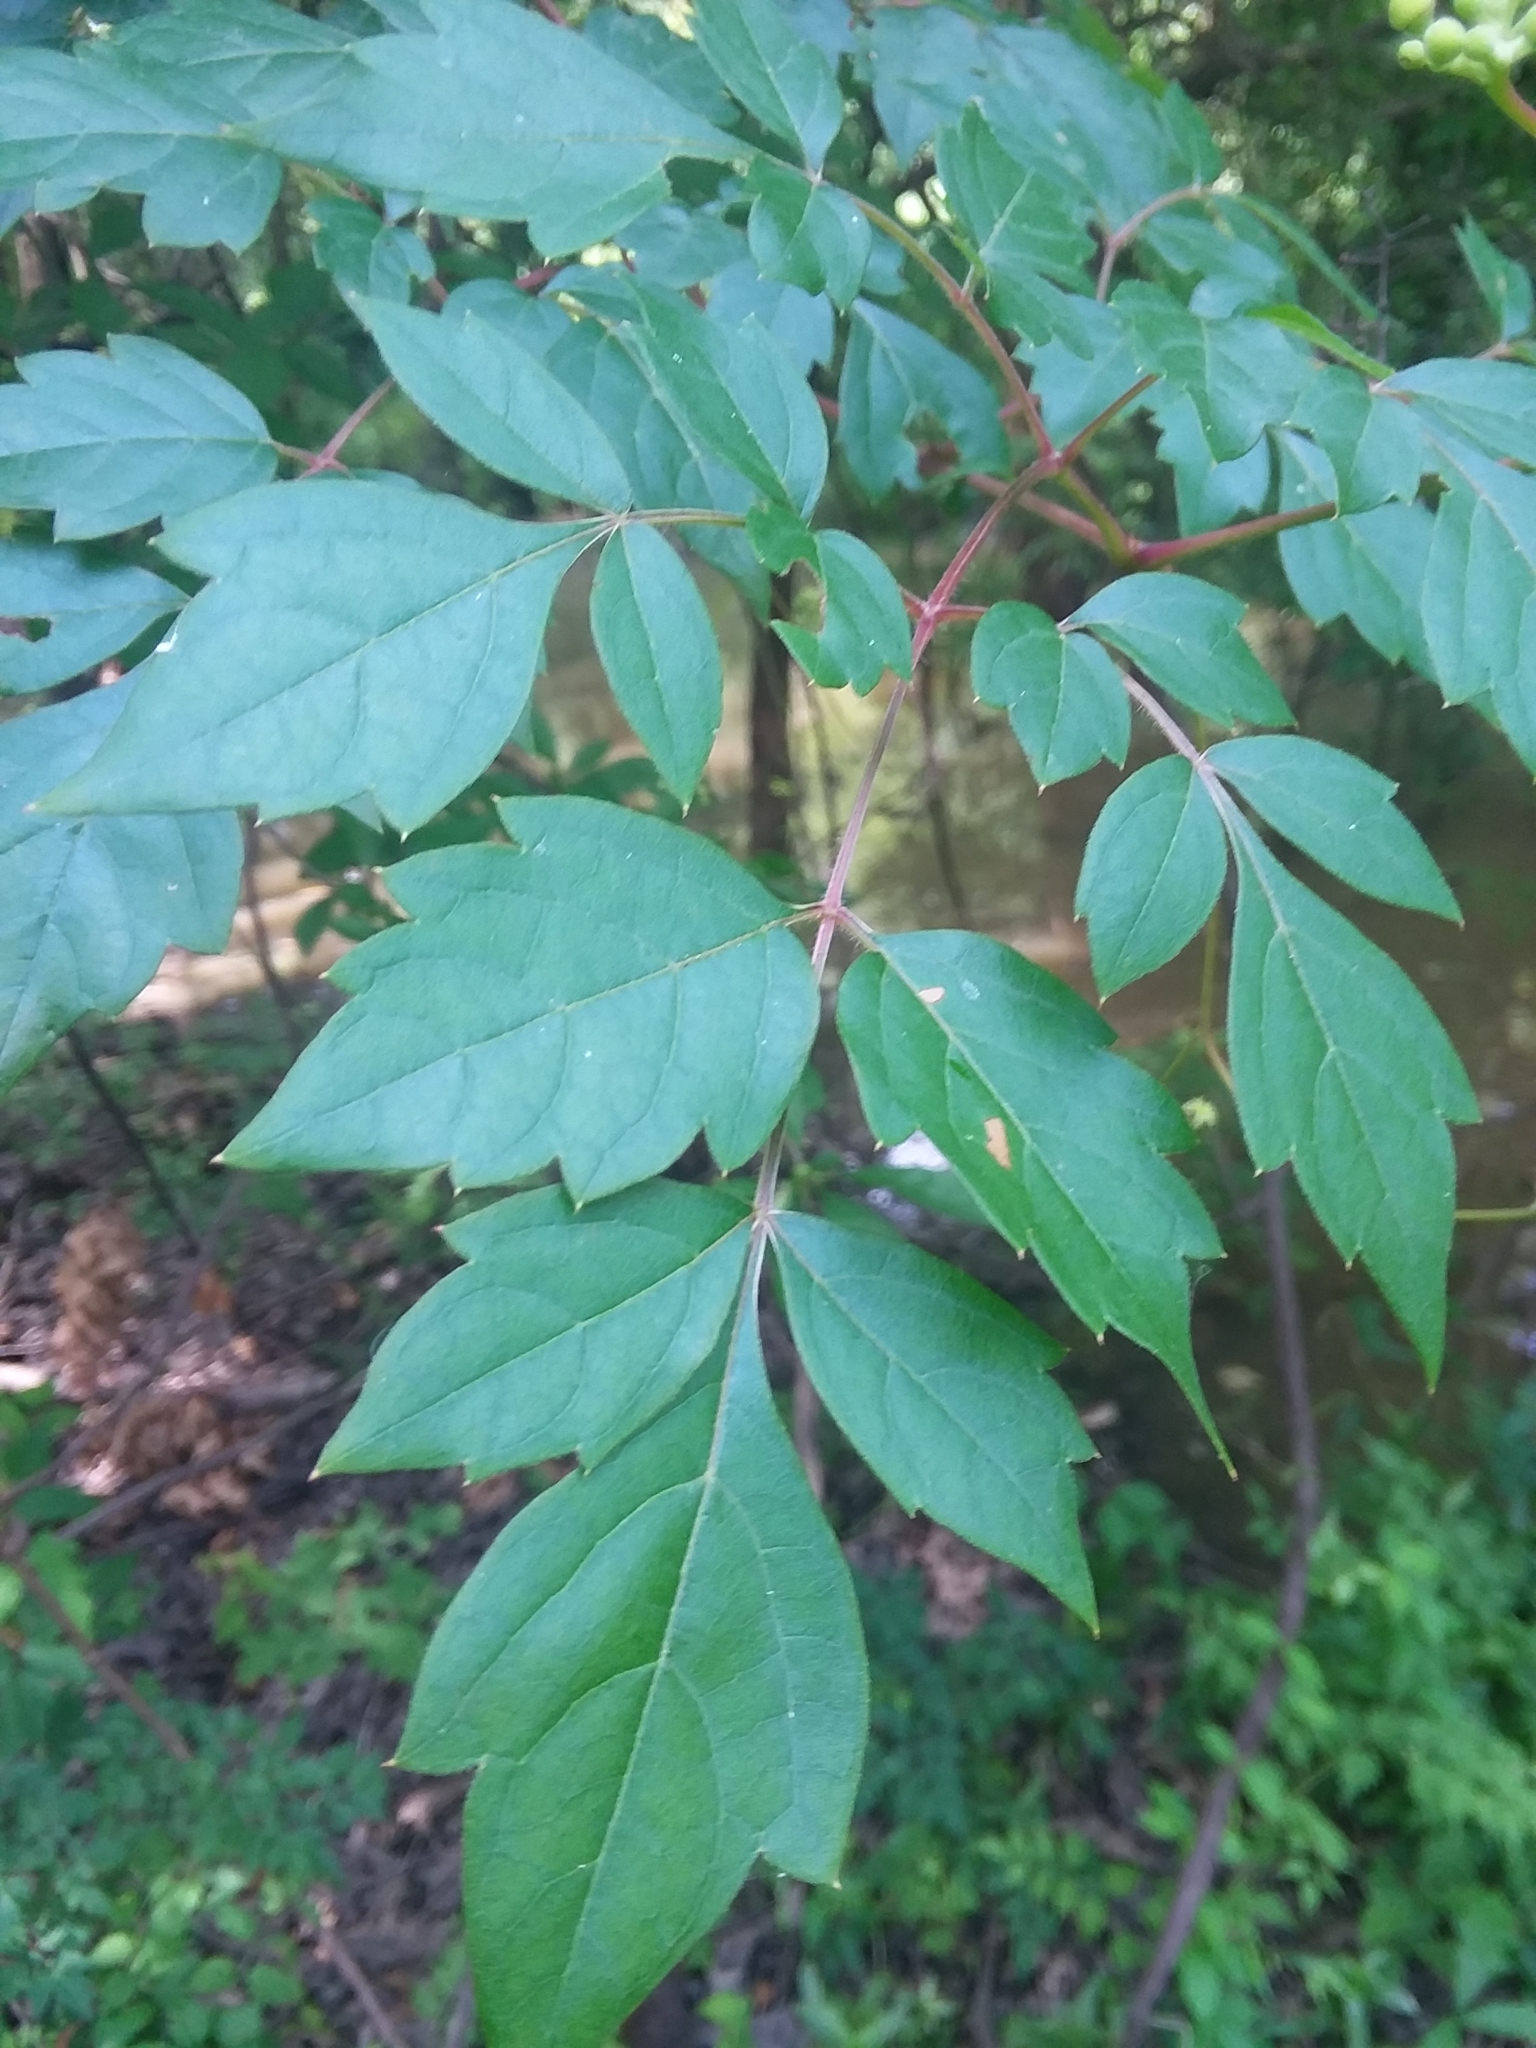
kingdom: Plantae
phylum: Tracheophyta
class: Magnoliopsida
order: Vitales
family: Vitaceae
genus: Nekemias
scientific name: Nekemias arborea
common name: Peppervine
